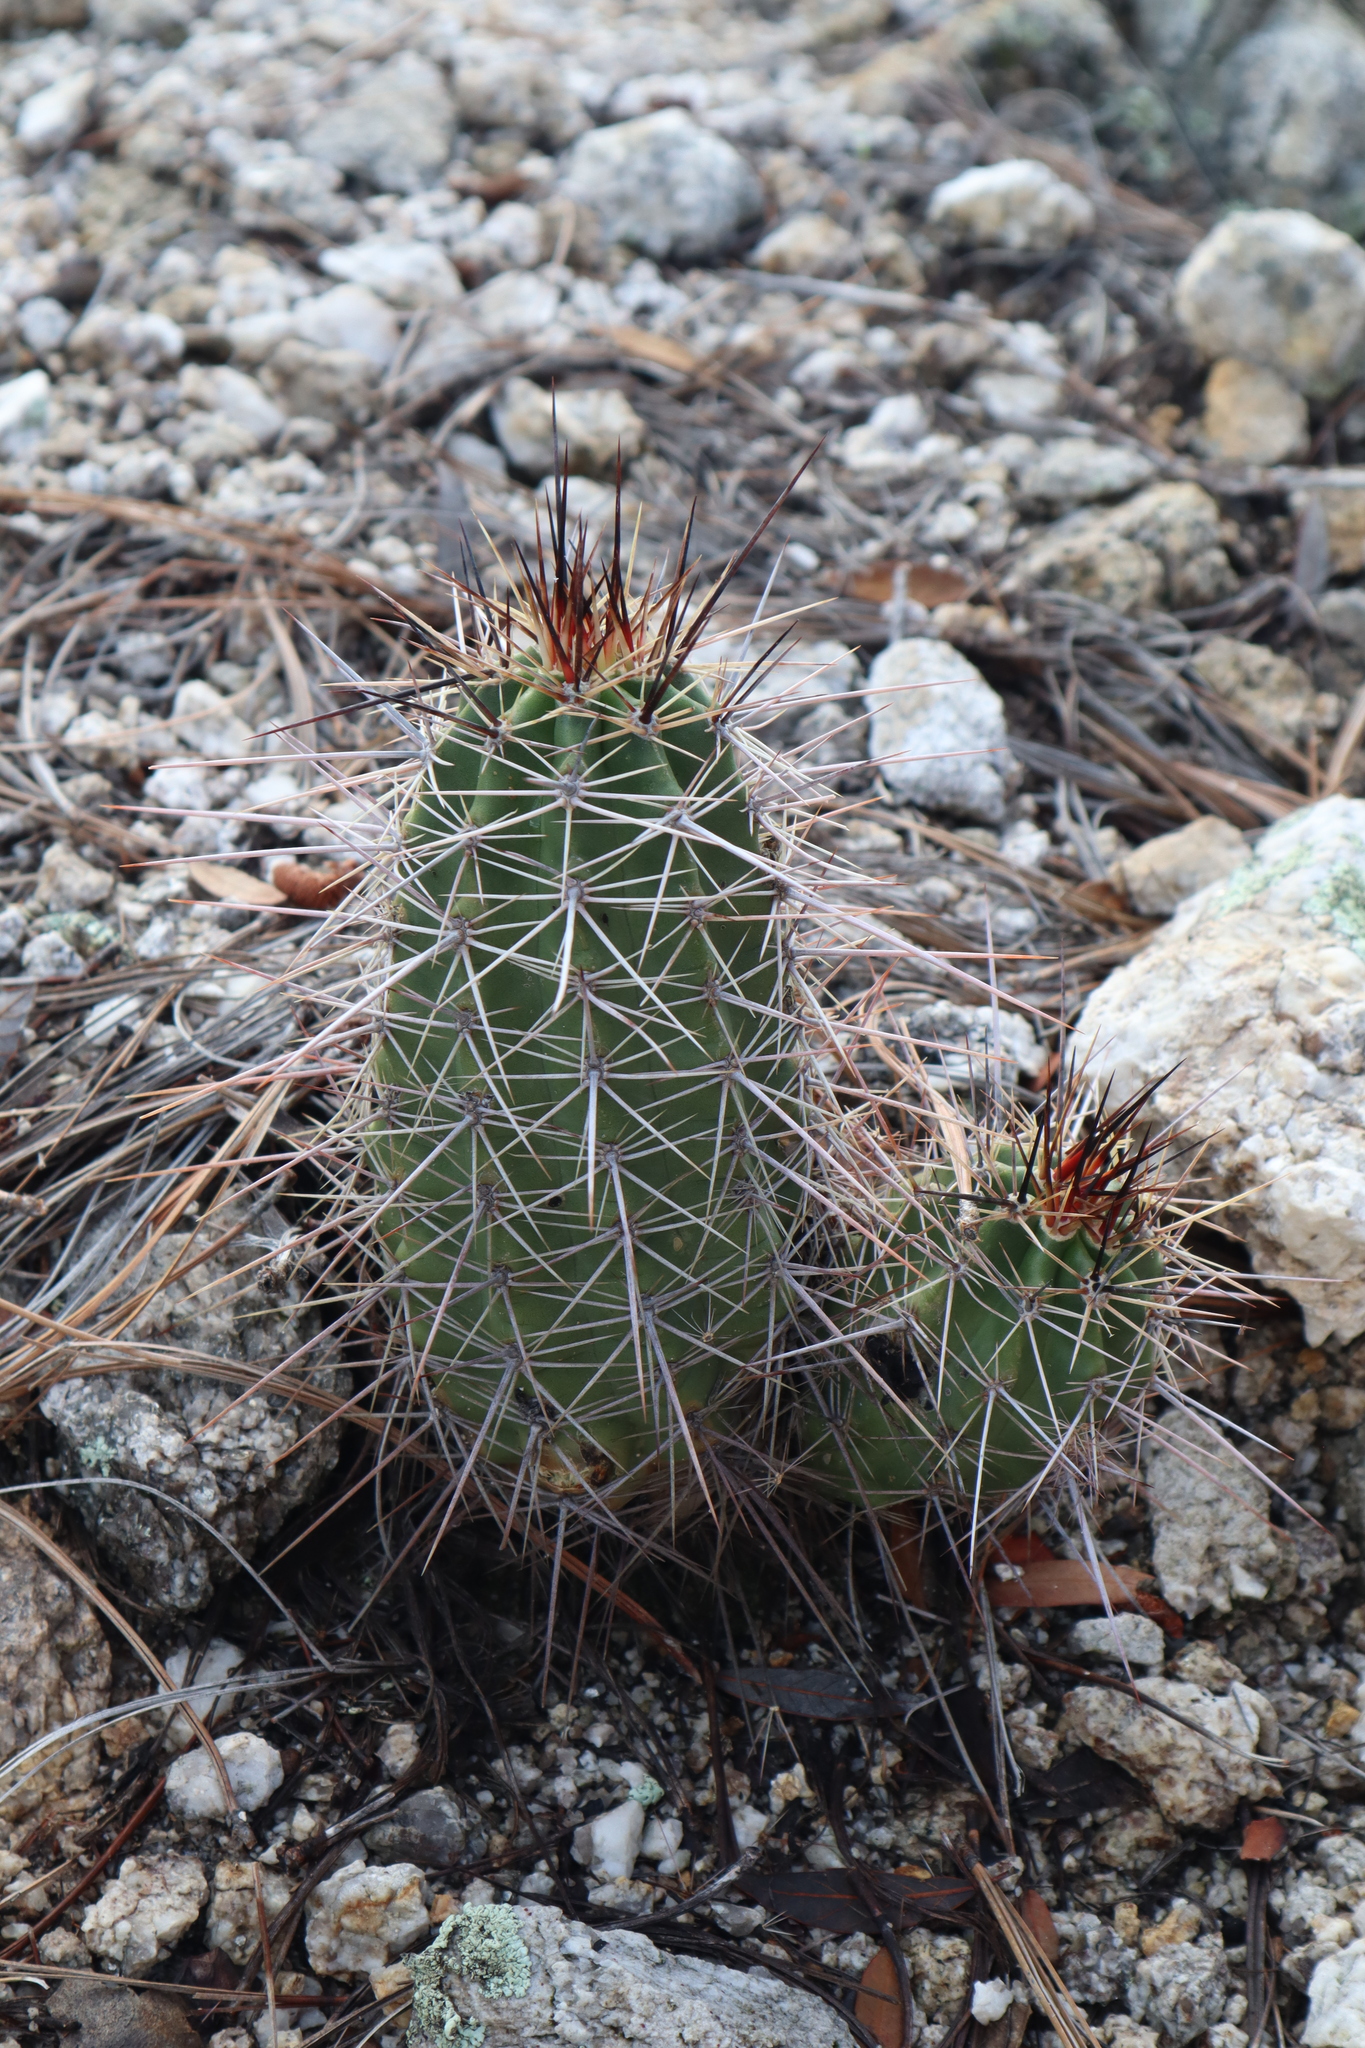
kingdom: Plantae
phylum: Tracheophyta
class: Magnoliopsida
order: Caryophyllales
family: Cactaceae
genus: Echinocereus
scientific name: Echinocereus coccineus
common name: Scarlet hedgehog cactus
